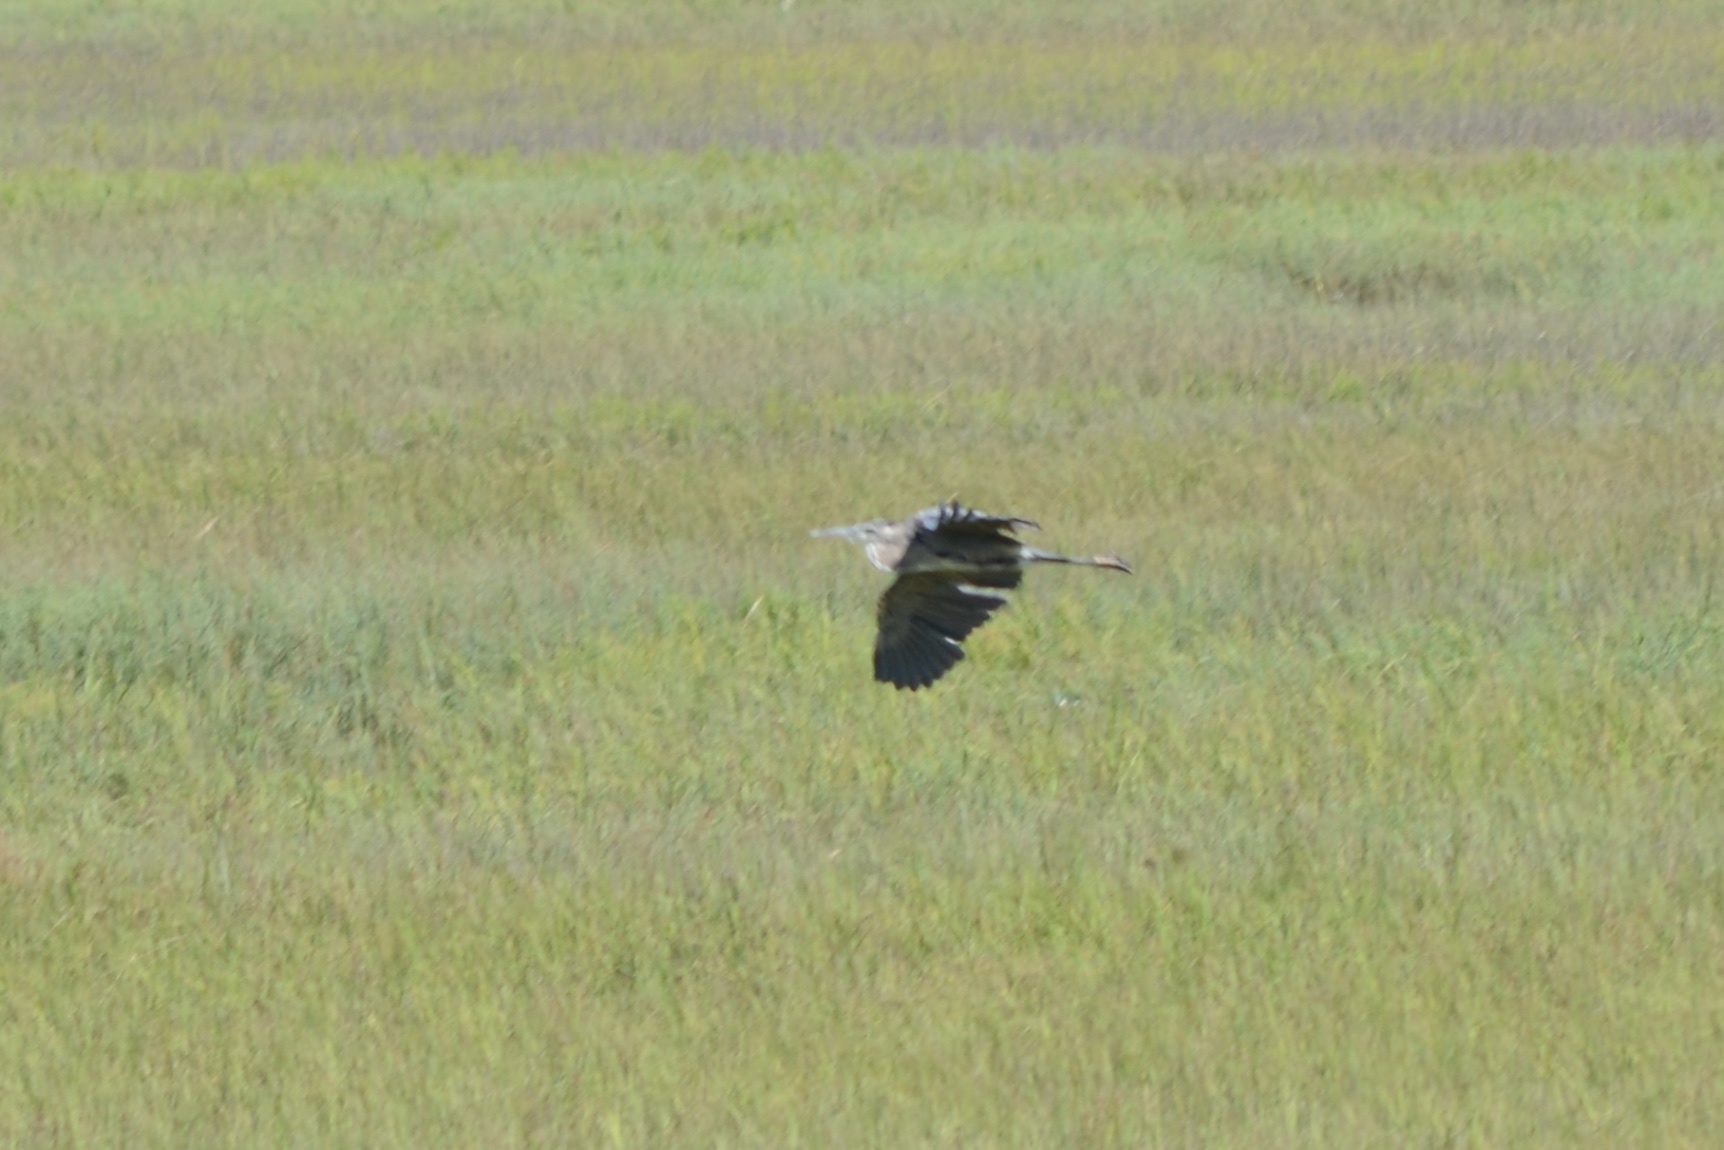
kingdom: Animalia
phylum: Chordata
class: Aves
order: Pelecaniformes
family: Ardeidae
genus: Ardea
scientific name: Ardea herodias
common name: Great blue heron
